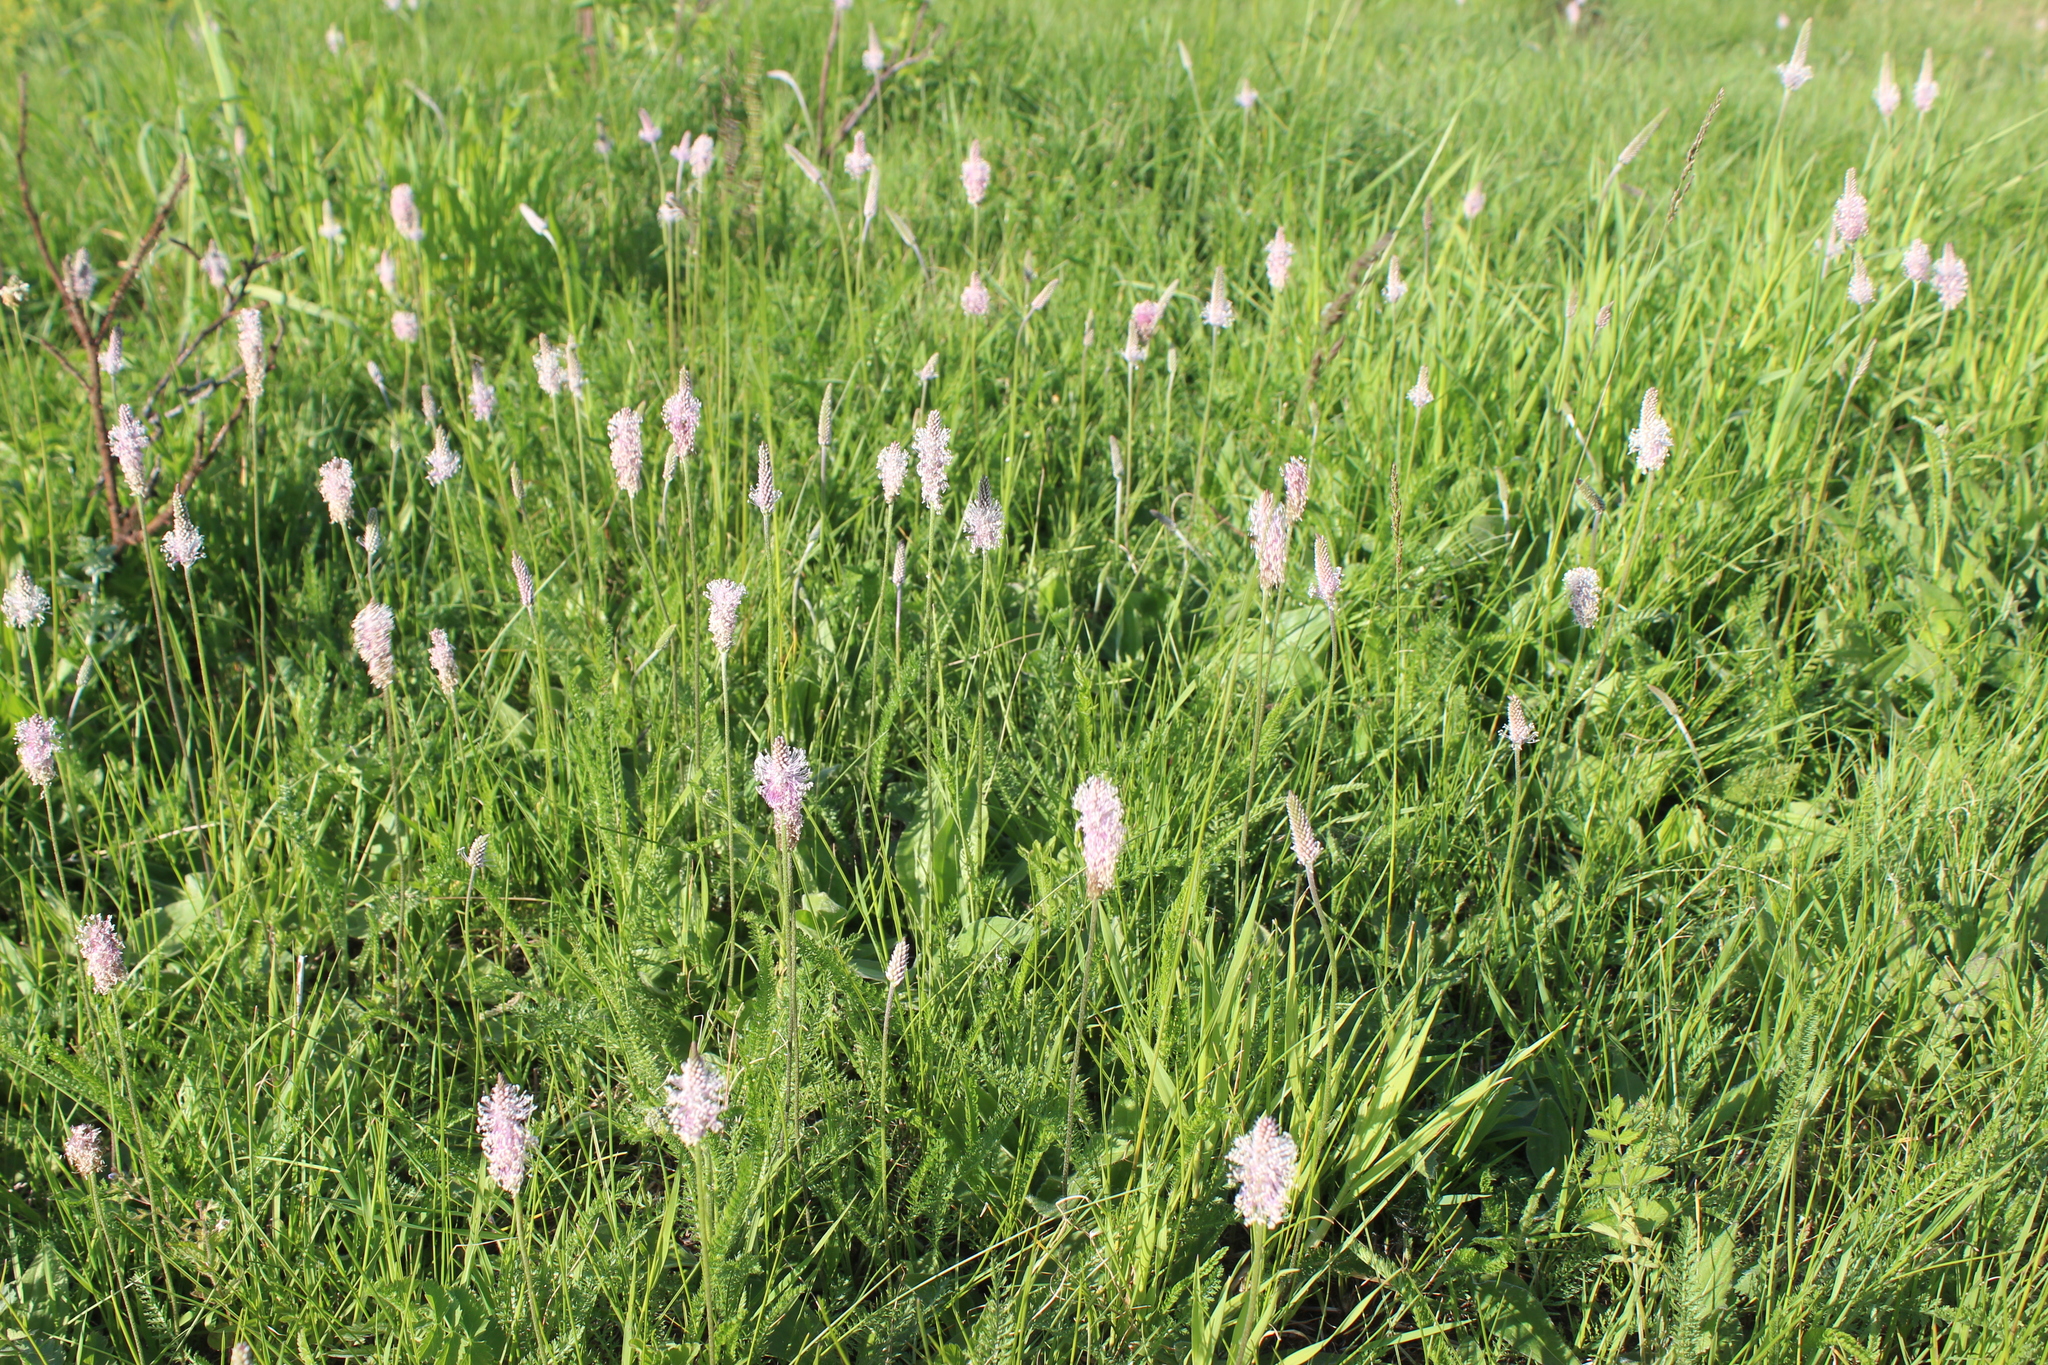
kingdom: Plantae
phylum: Tracheophyta
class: Magnoliopsida
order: Lamiales
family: Plantaginaceae
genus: Plantago
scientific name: Plantago media
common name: Hoary plantain
